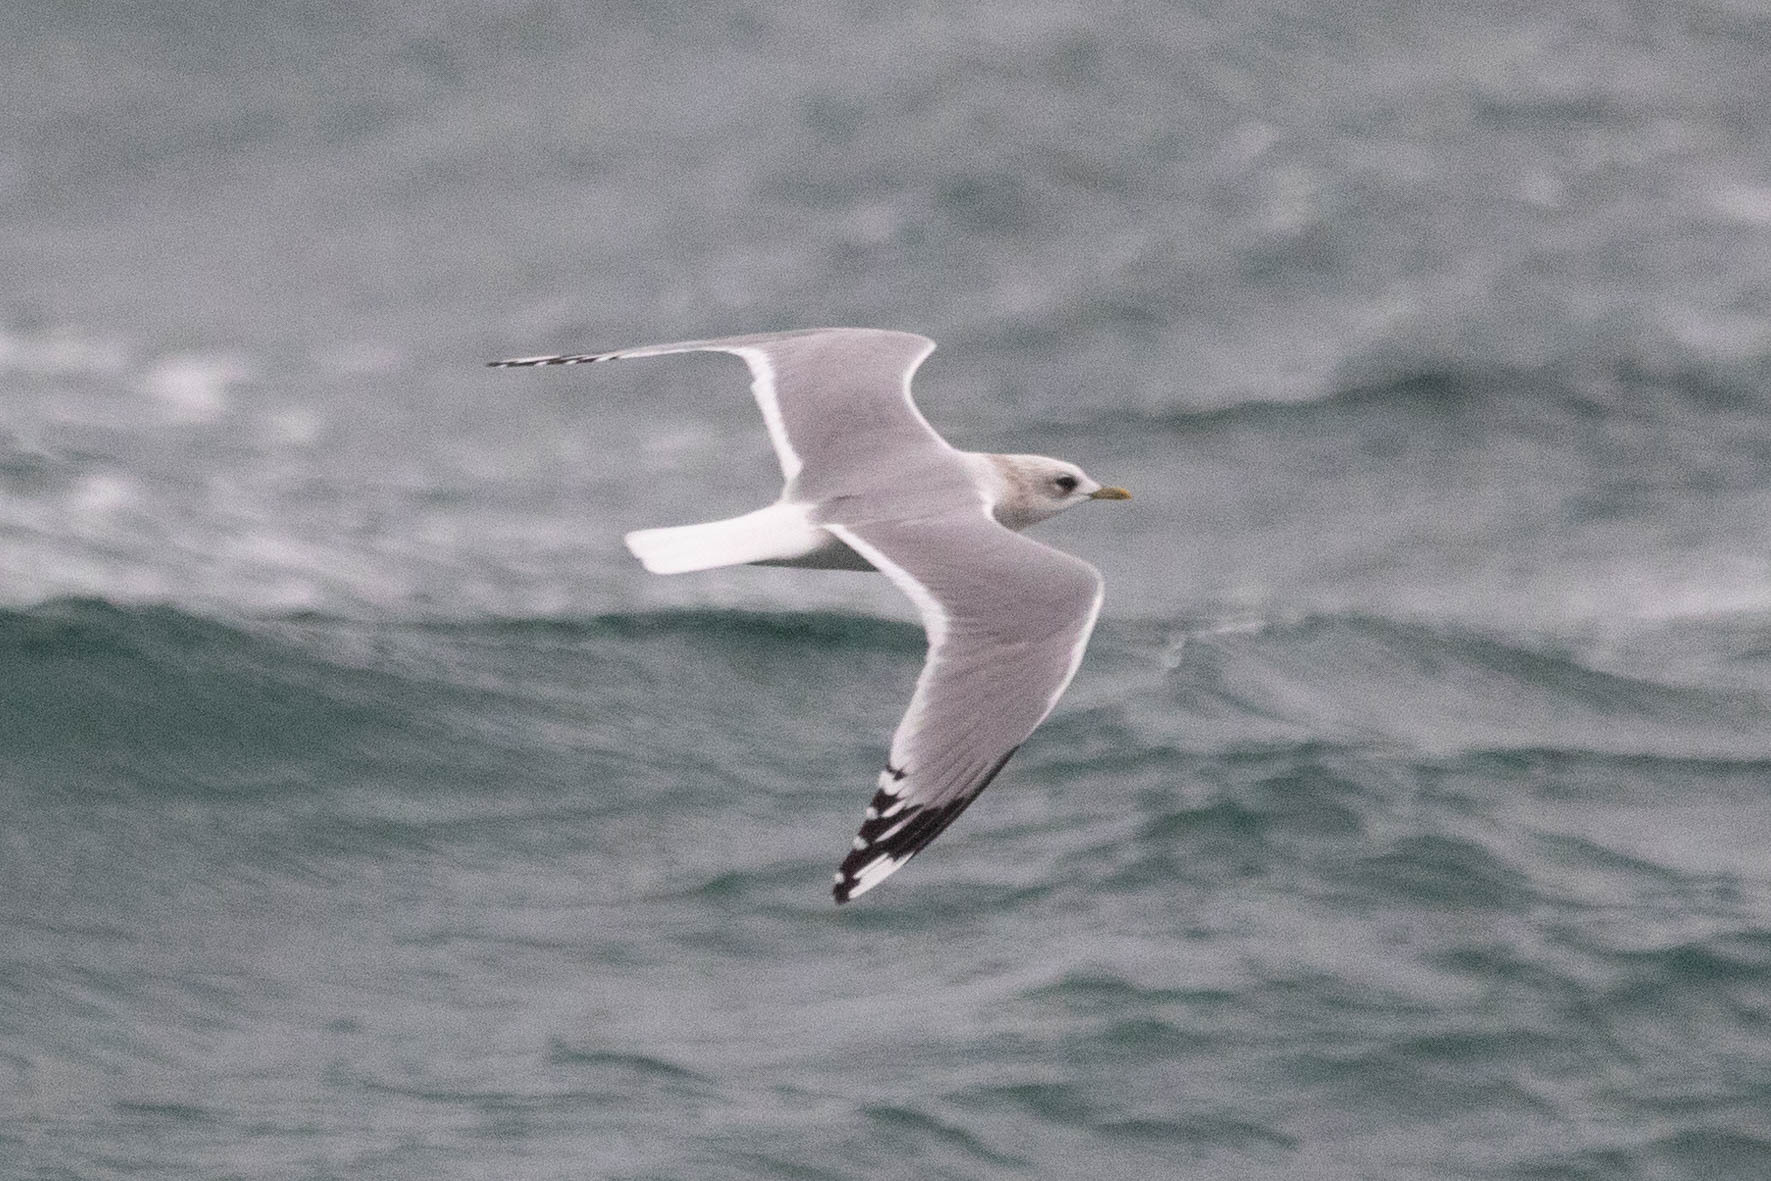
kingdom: Animalia
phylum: Chordata
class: Aves
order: Charadriiformes
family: Laridae
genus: Larus
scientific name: Larus brachyrhynchus
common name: Short-billed gull
